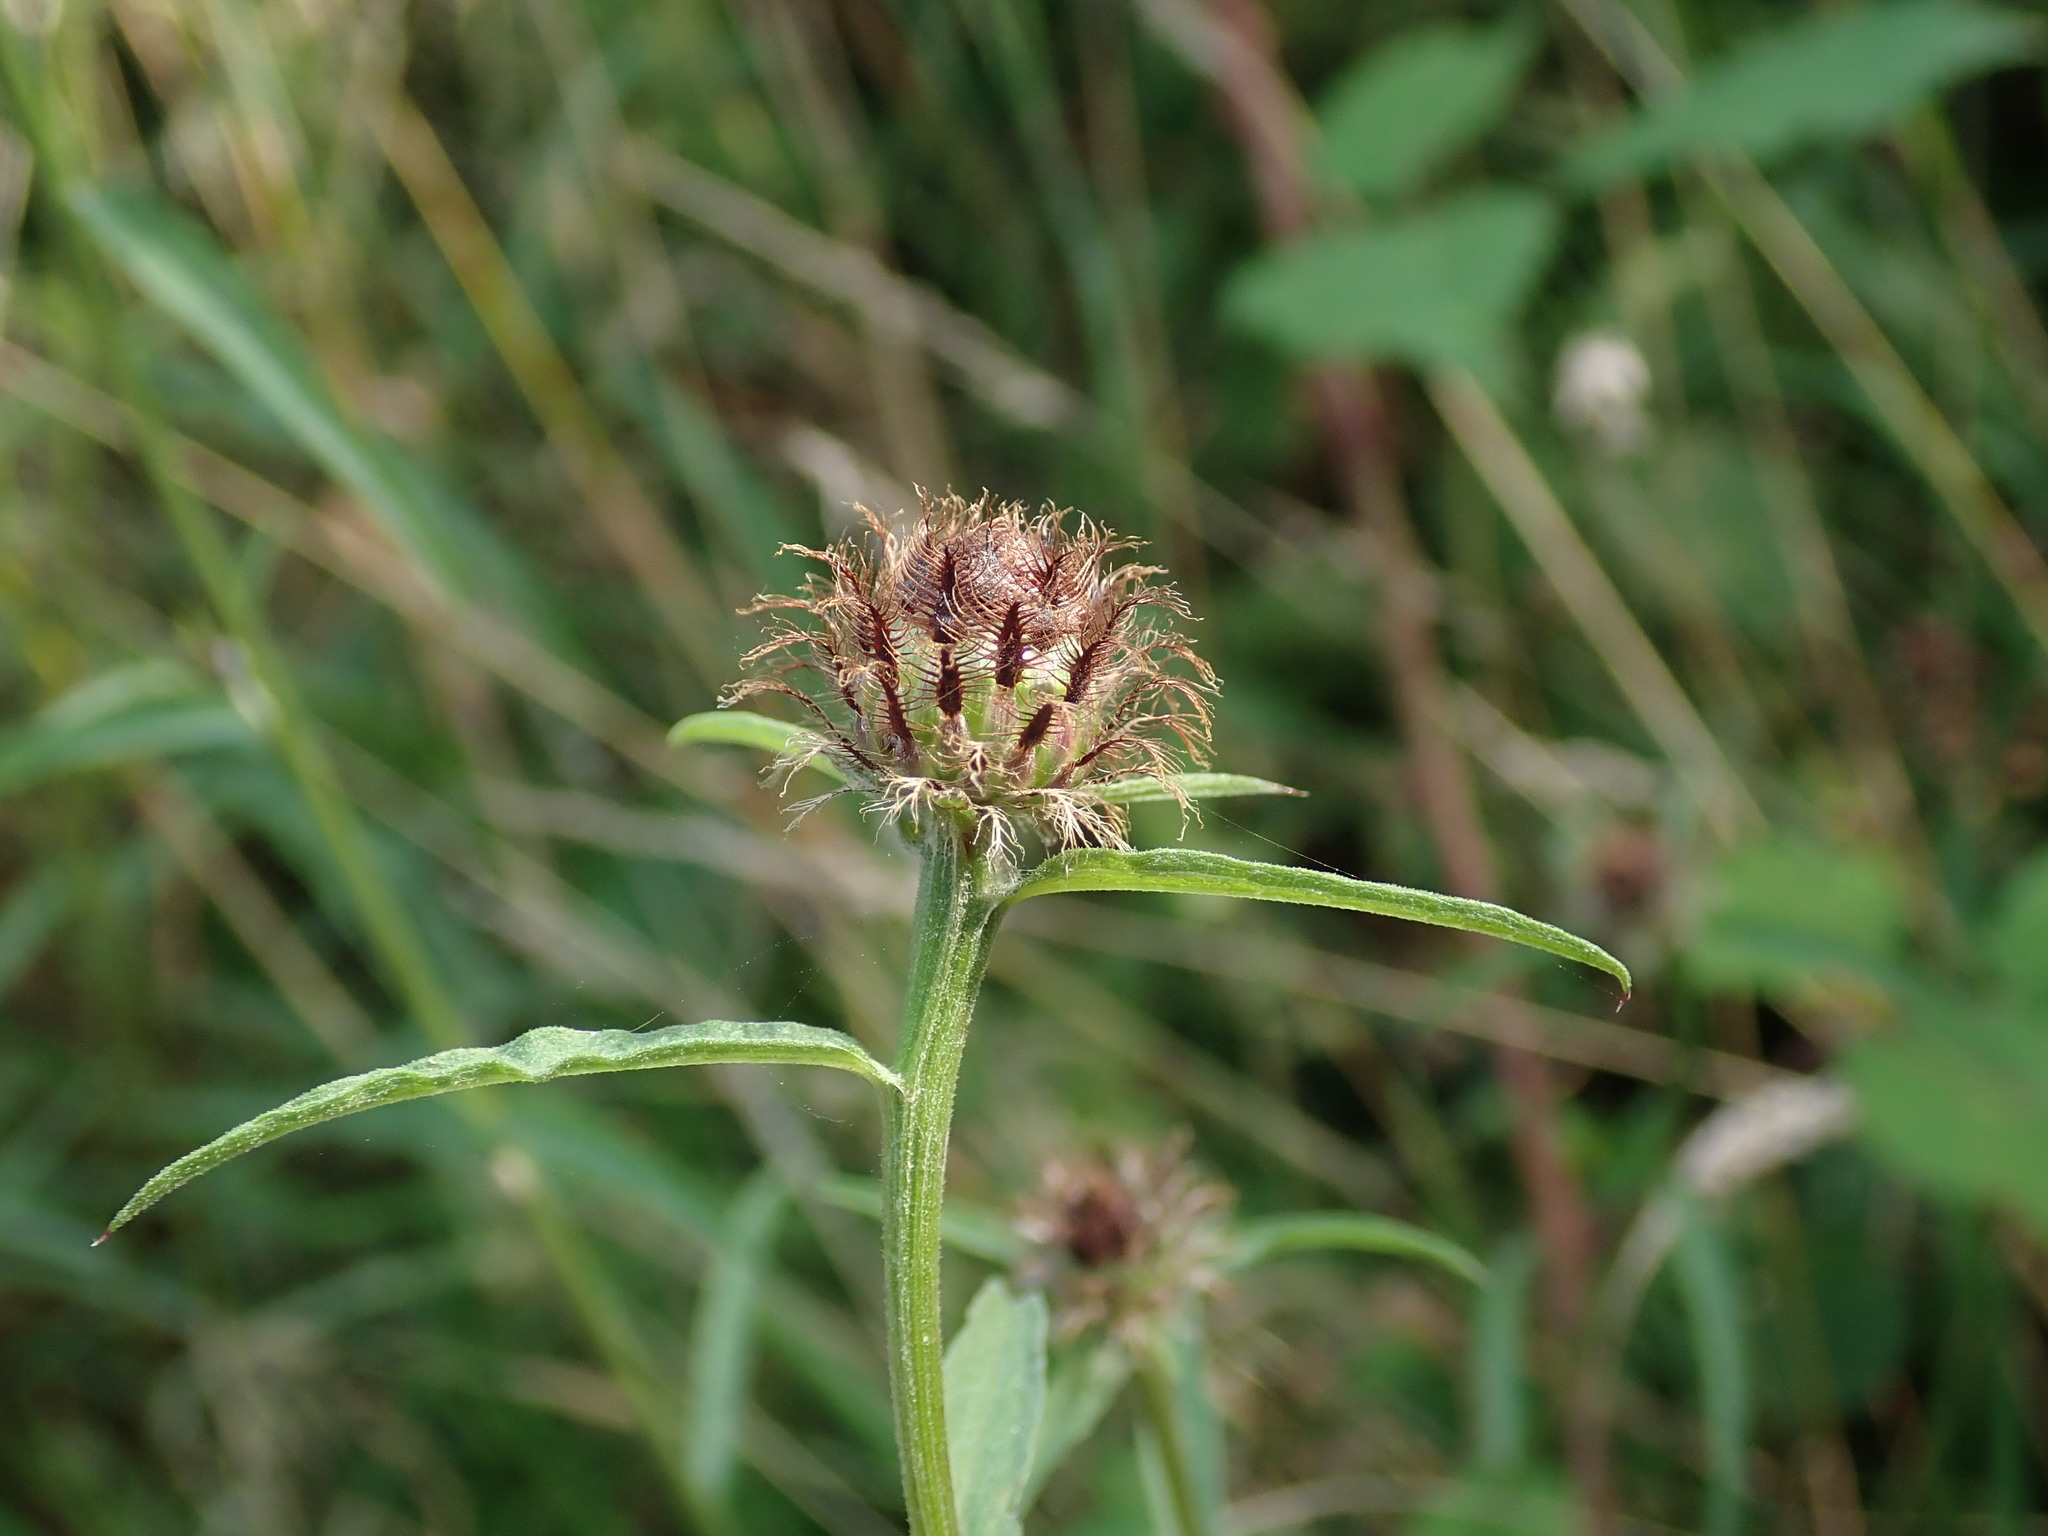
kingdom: Plantae
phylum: Tracheophyta
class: Magnoliopsida
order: Asterales
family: Asteraceae
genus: Centaurea
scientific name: Centaurea debeauxii
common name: Slender knapweed
